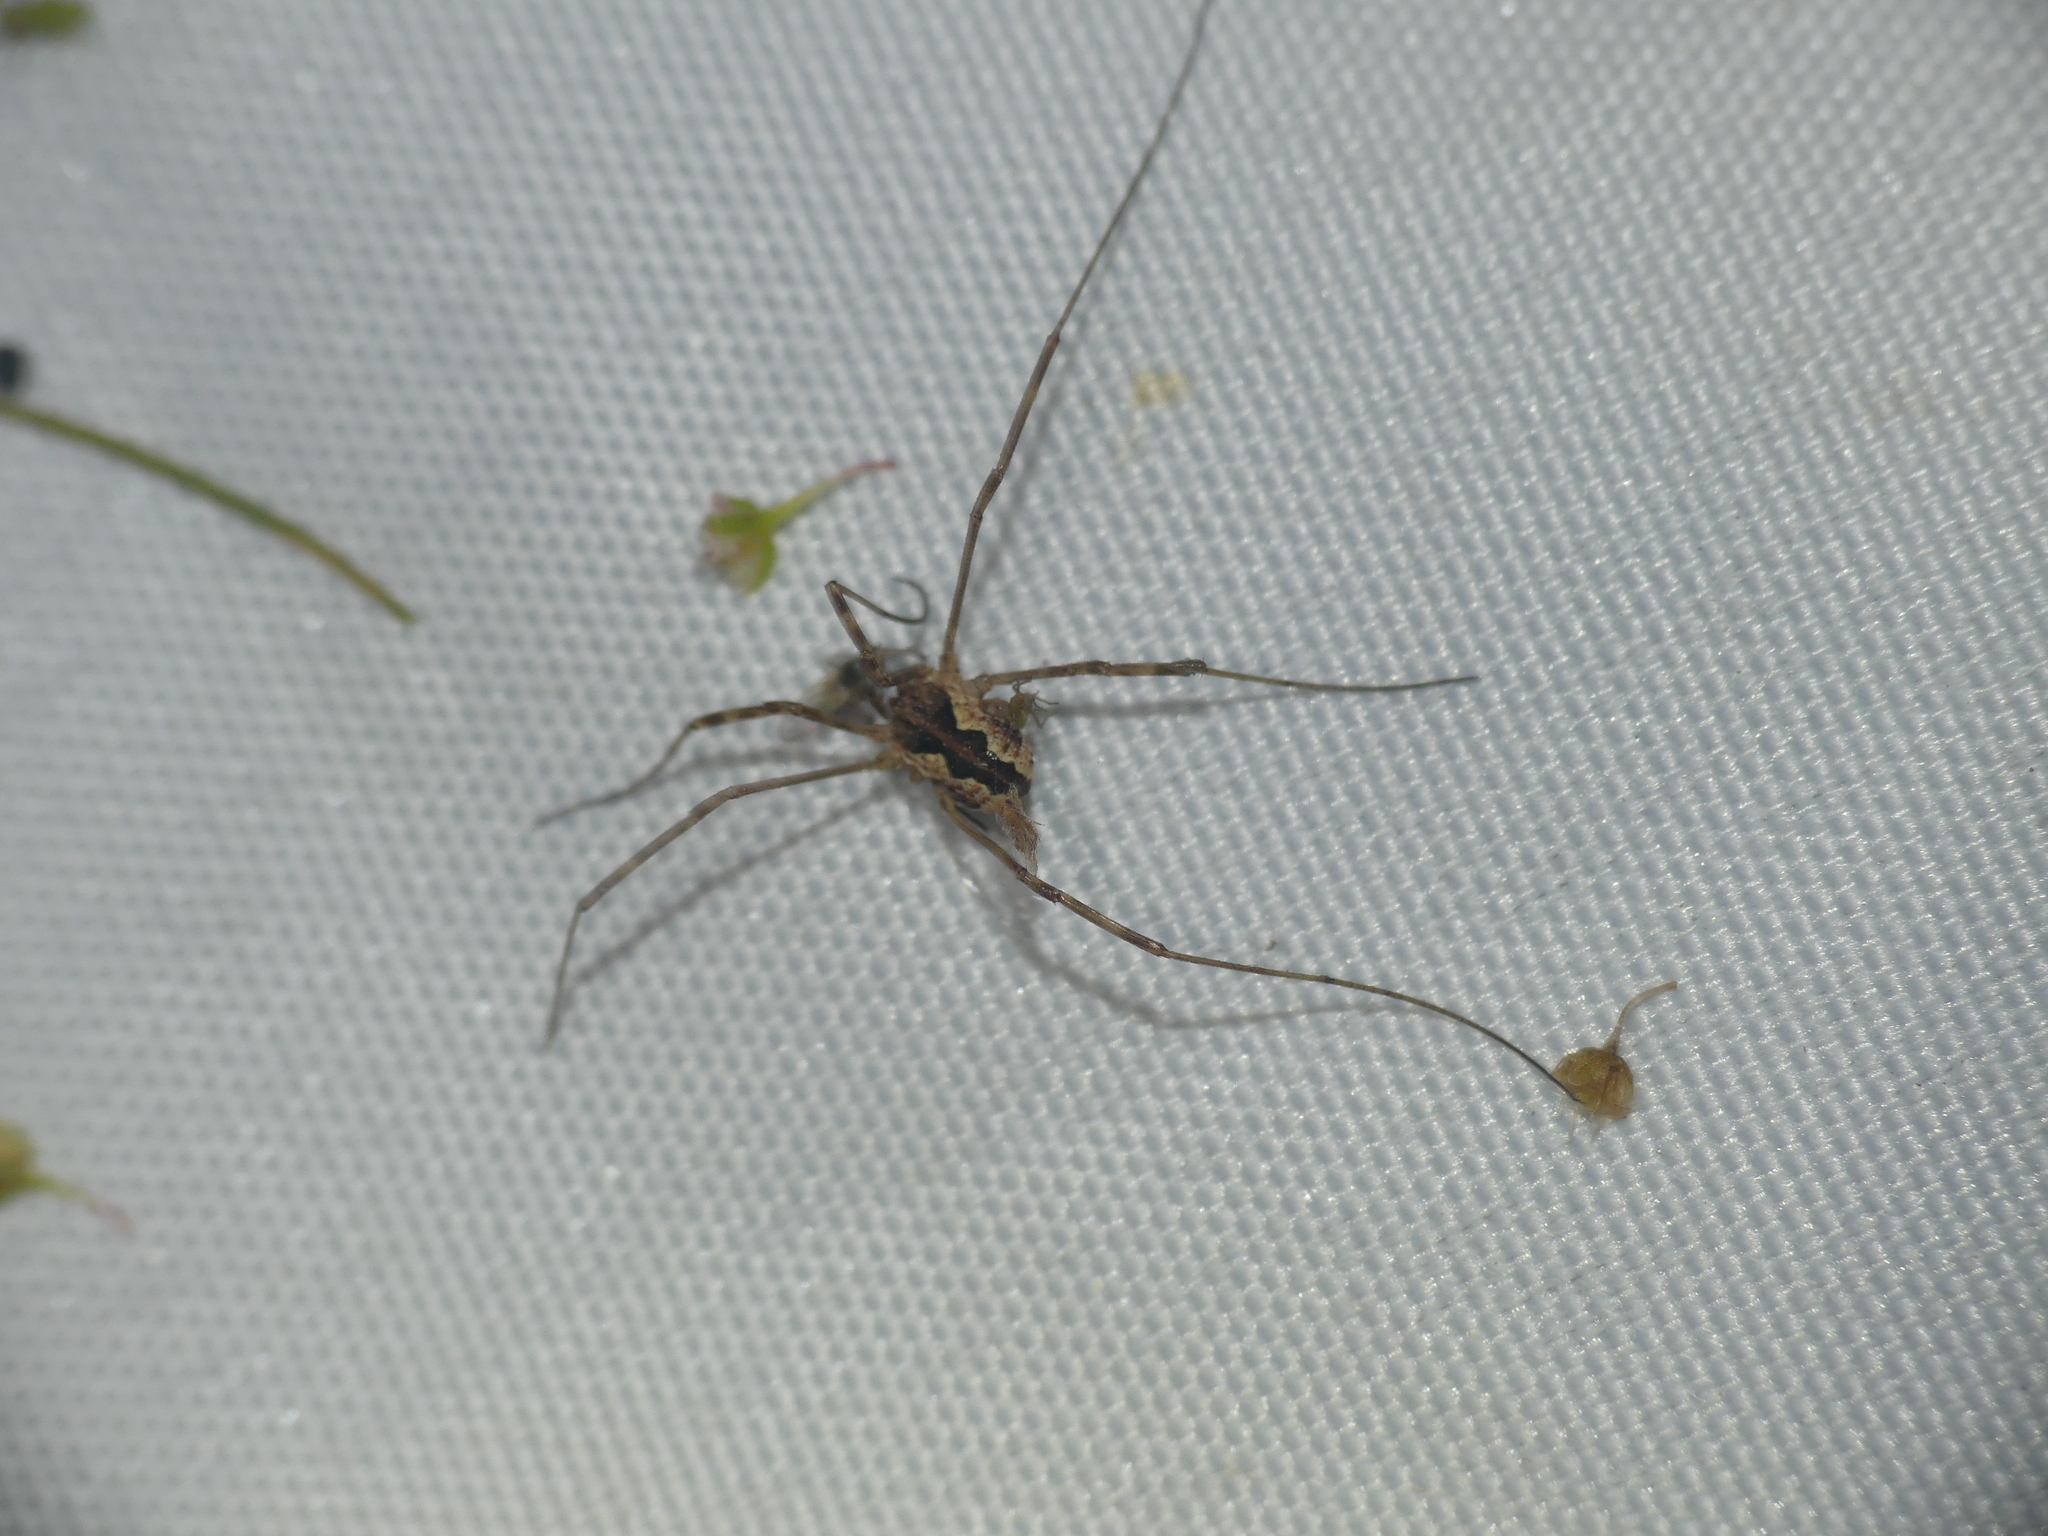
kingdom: Animalia
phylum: Arthropoda
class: Arachnida
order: Opiliones
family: Phalangiidae
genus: Mitopus
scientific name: Mitopus morio
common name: Saddleback harvestman
